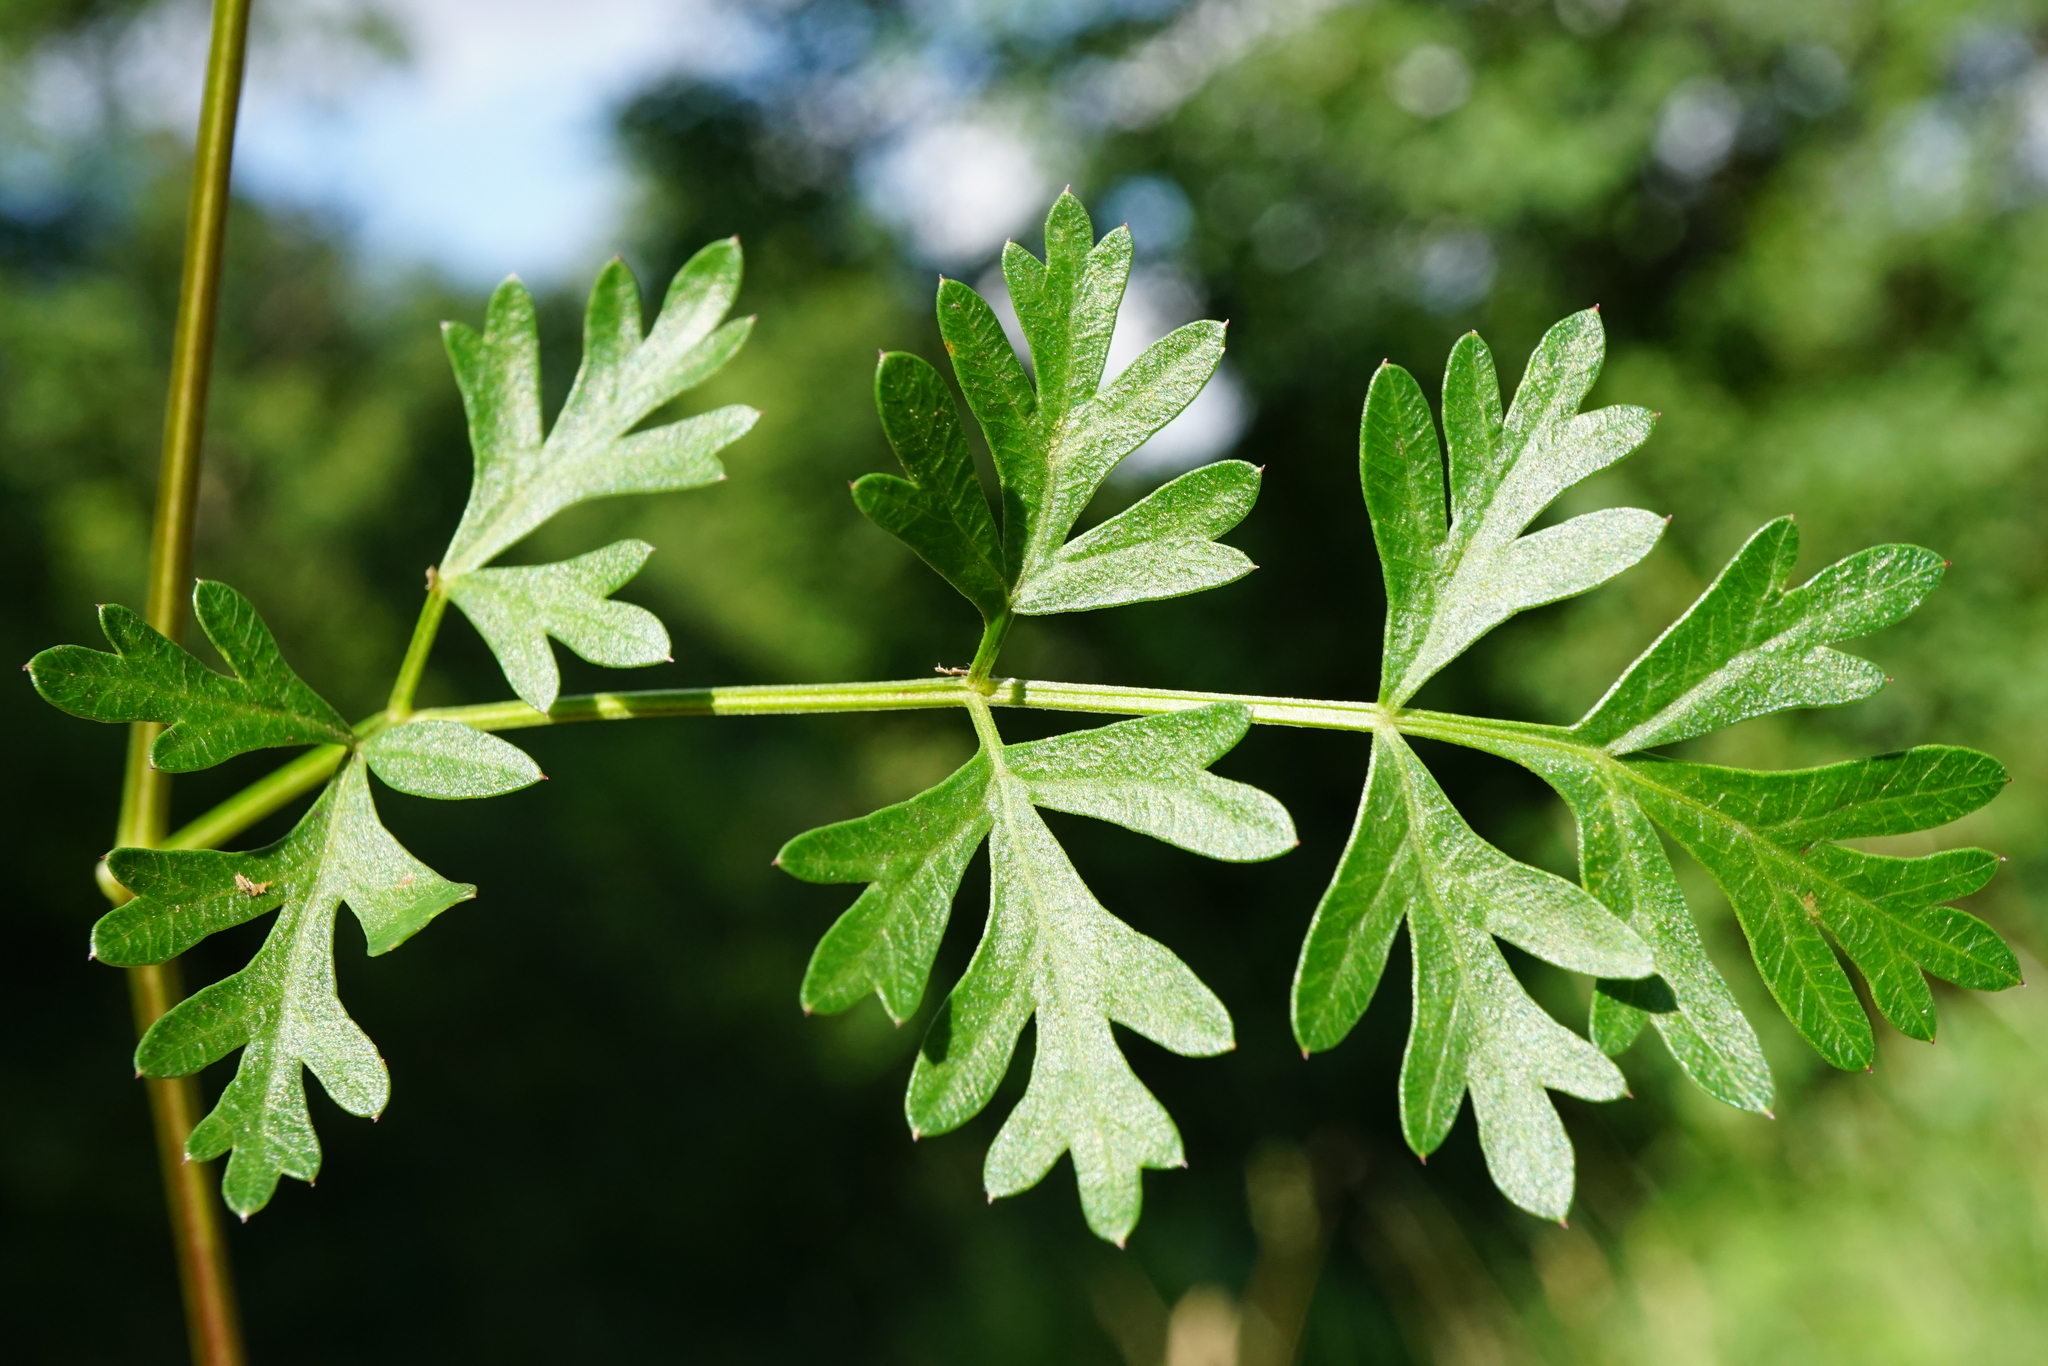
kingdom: Plantae
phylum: Tracheophyta
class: Magnoliopsida
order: Apiales
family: Apiaceae
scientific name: Apiaceae
